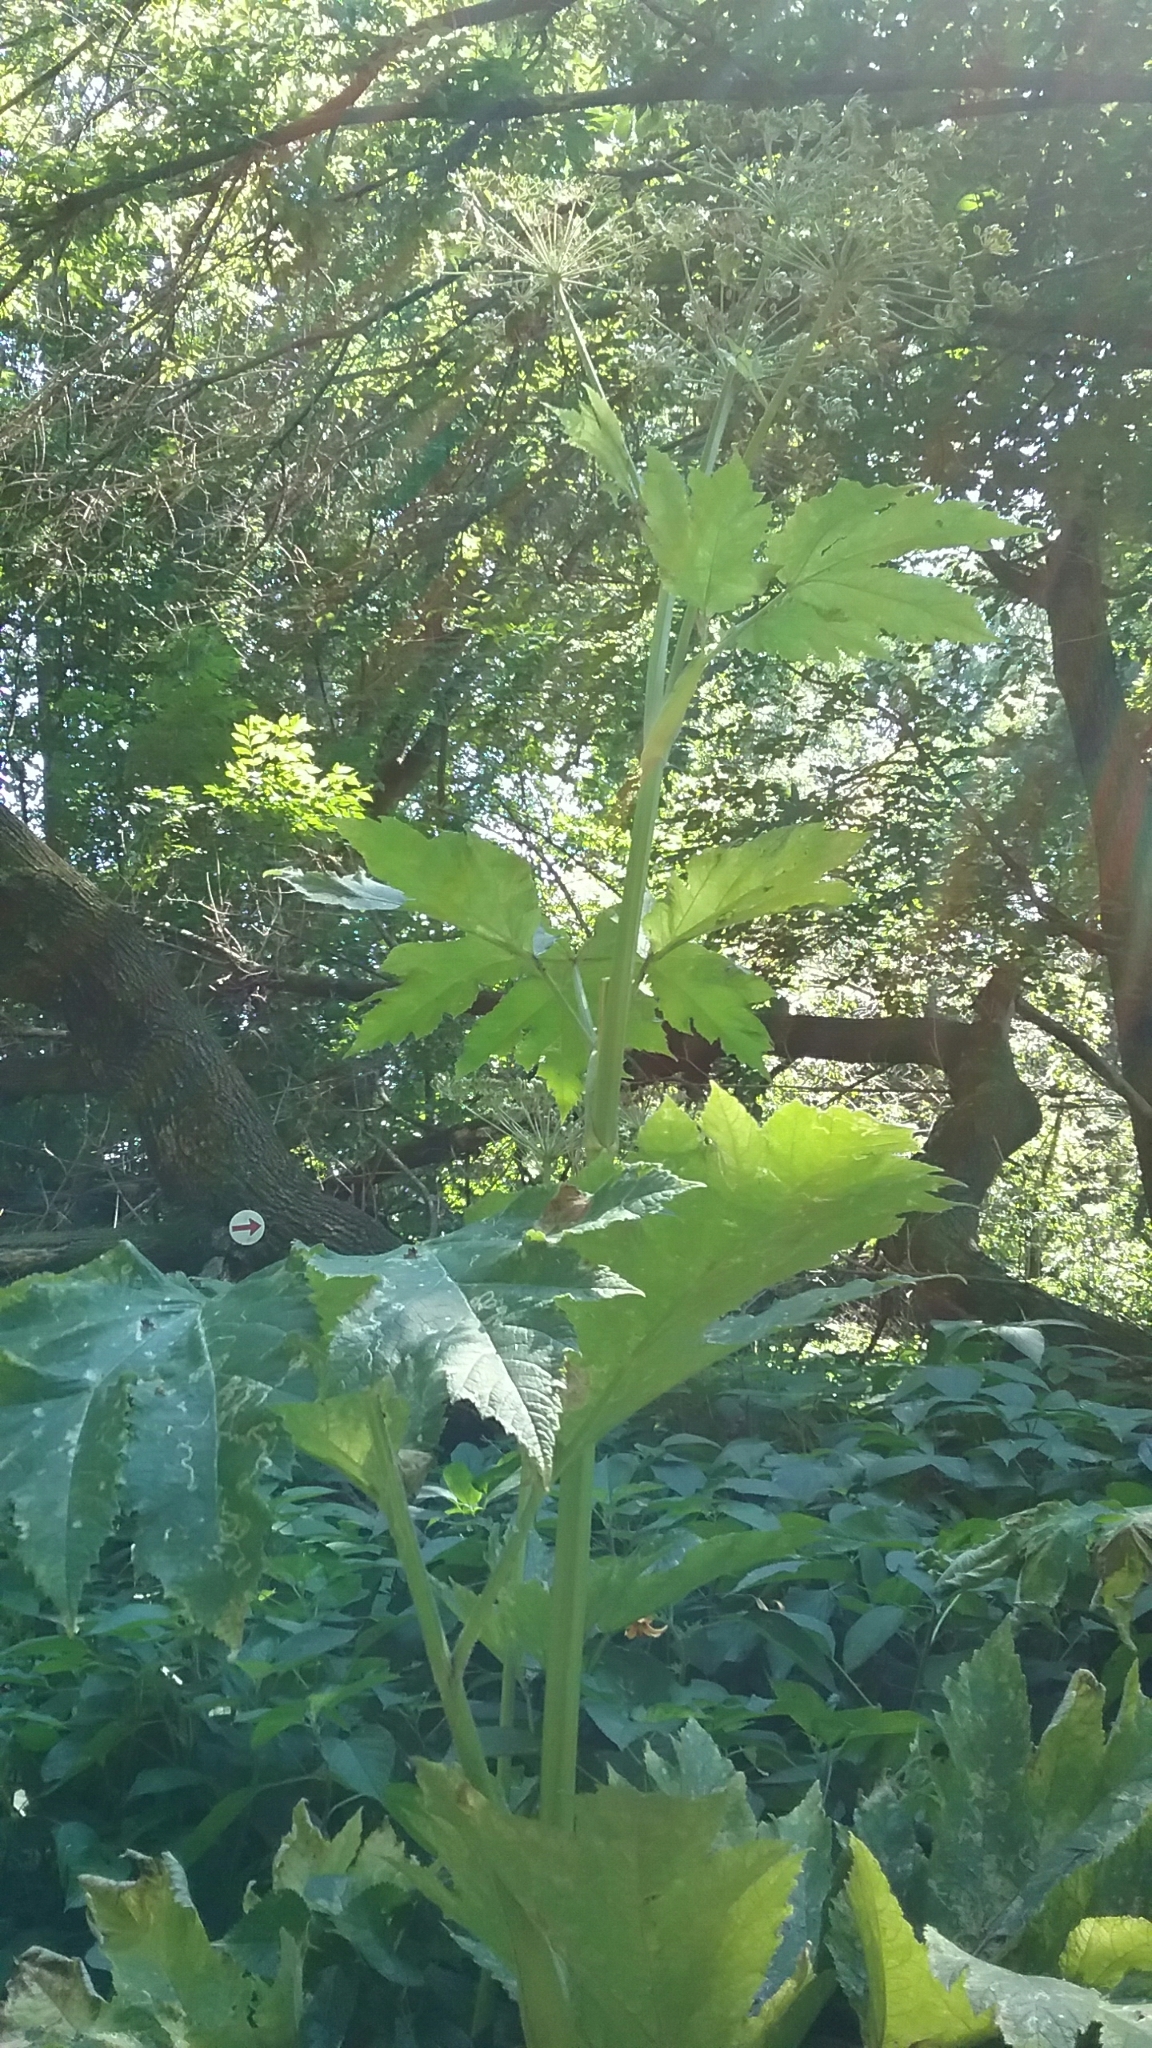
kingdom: Plantae
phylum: Tracheophyta
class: Magnoliopsida
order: Apiales
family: Apiaceae
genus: Heracleum
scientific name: Heracleum maximum
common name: American cow parsnip
